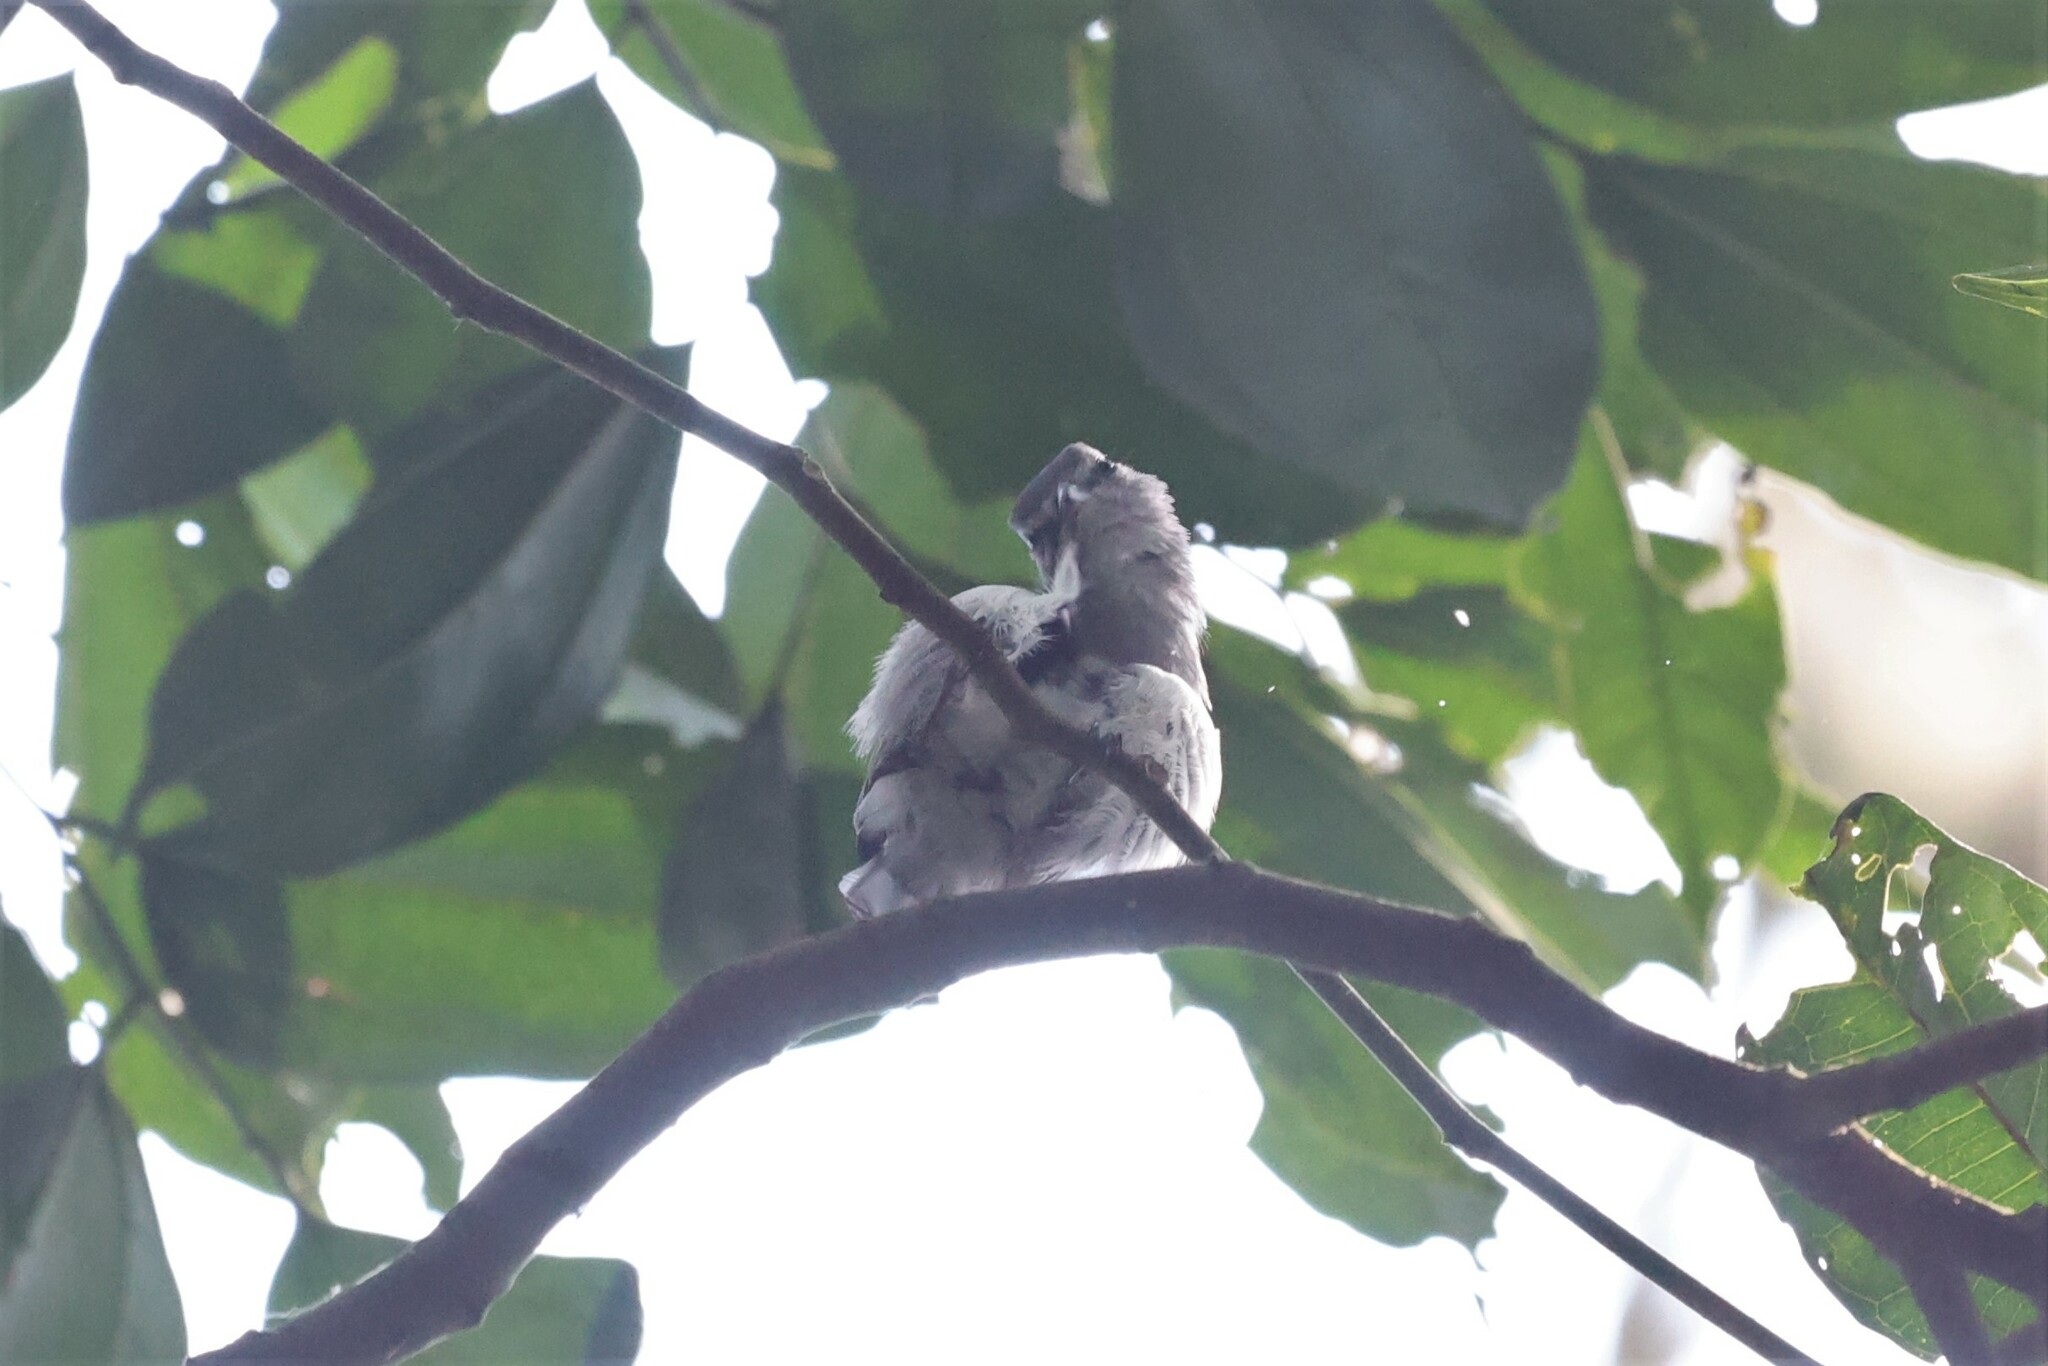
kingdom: Animalia
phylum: Chordata
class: Aves
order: Passeriformes
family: Muscicapidae
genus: Muscicapa
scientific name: Muscicapa caerulescens
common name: Ashy flycatcher
